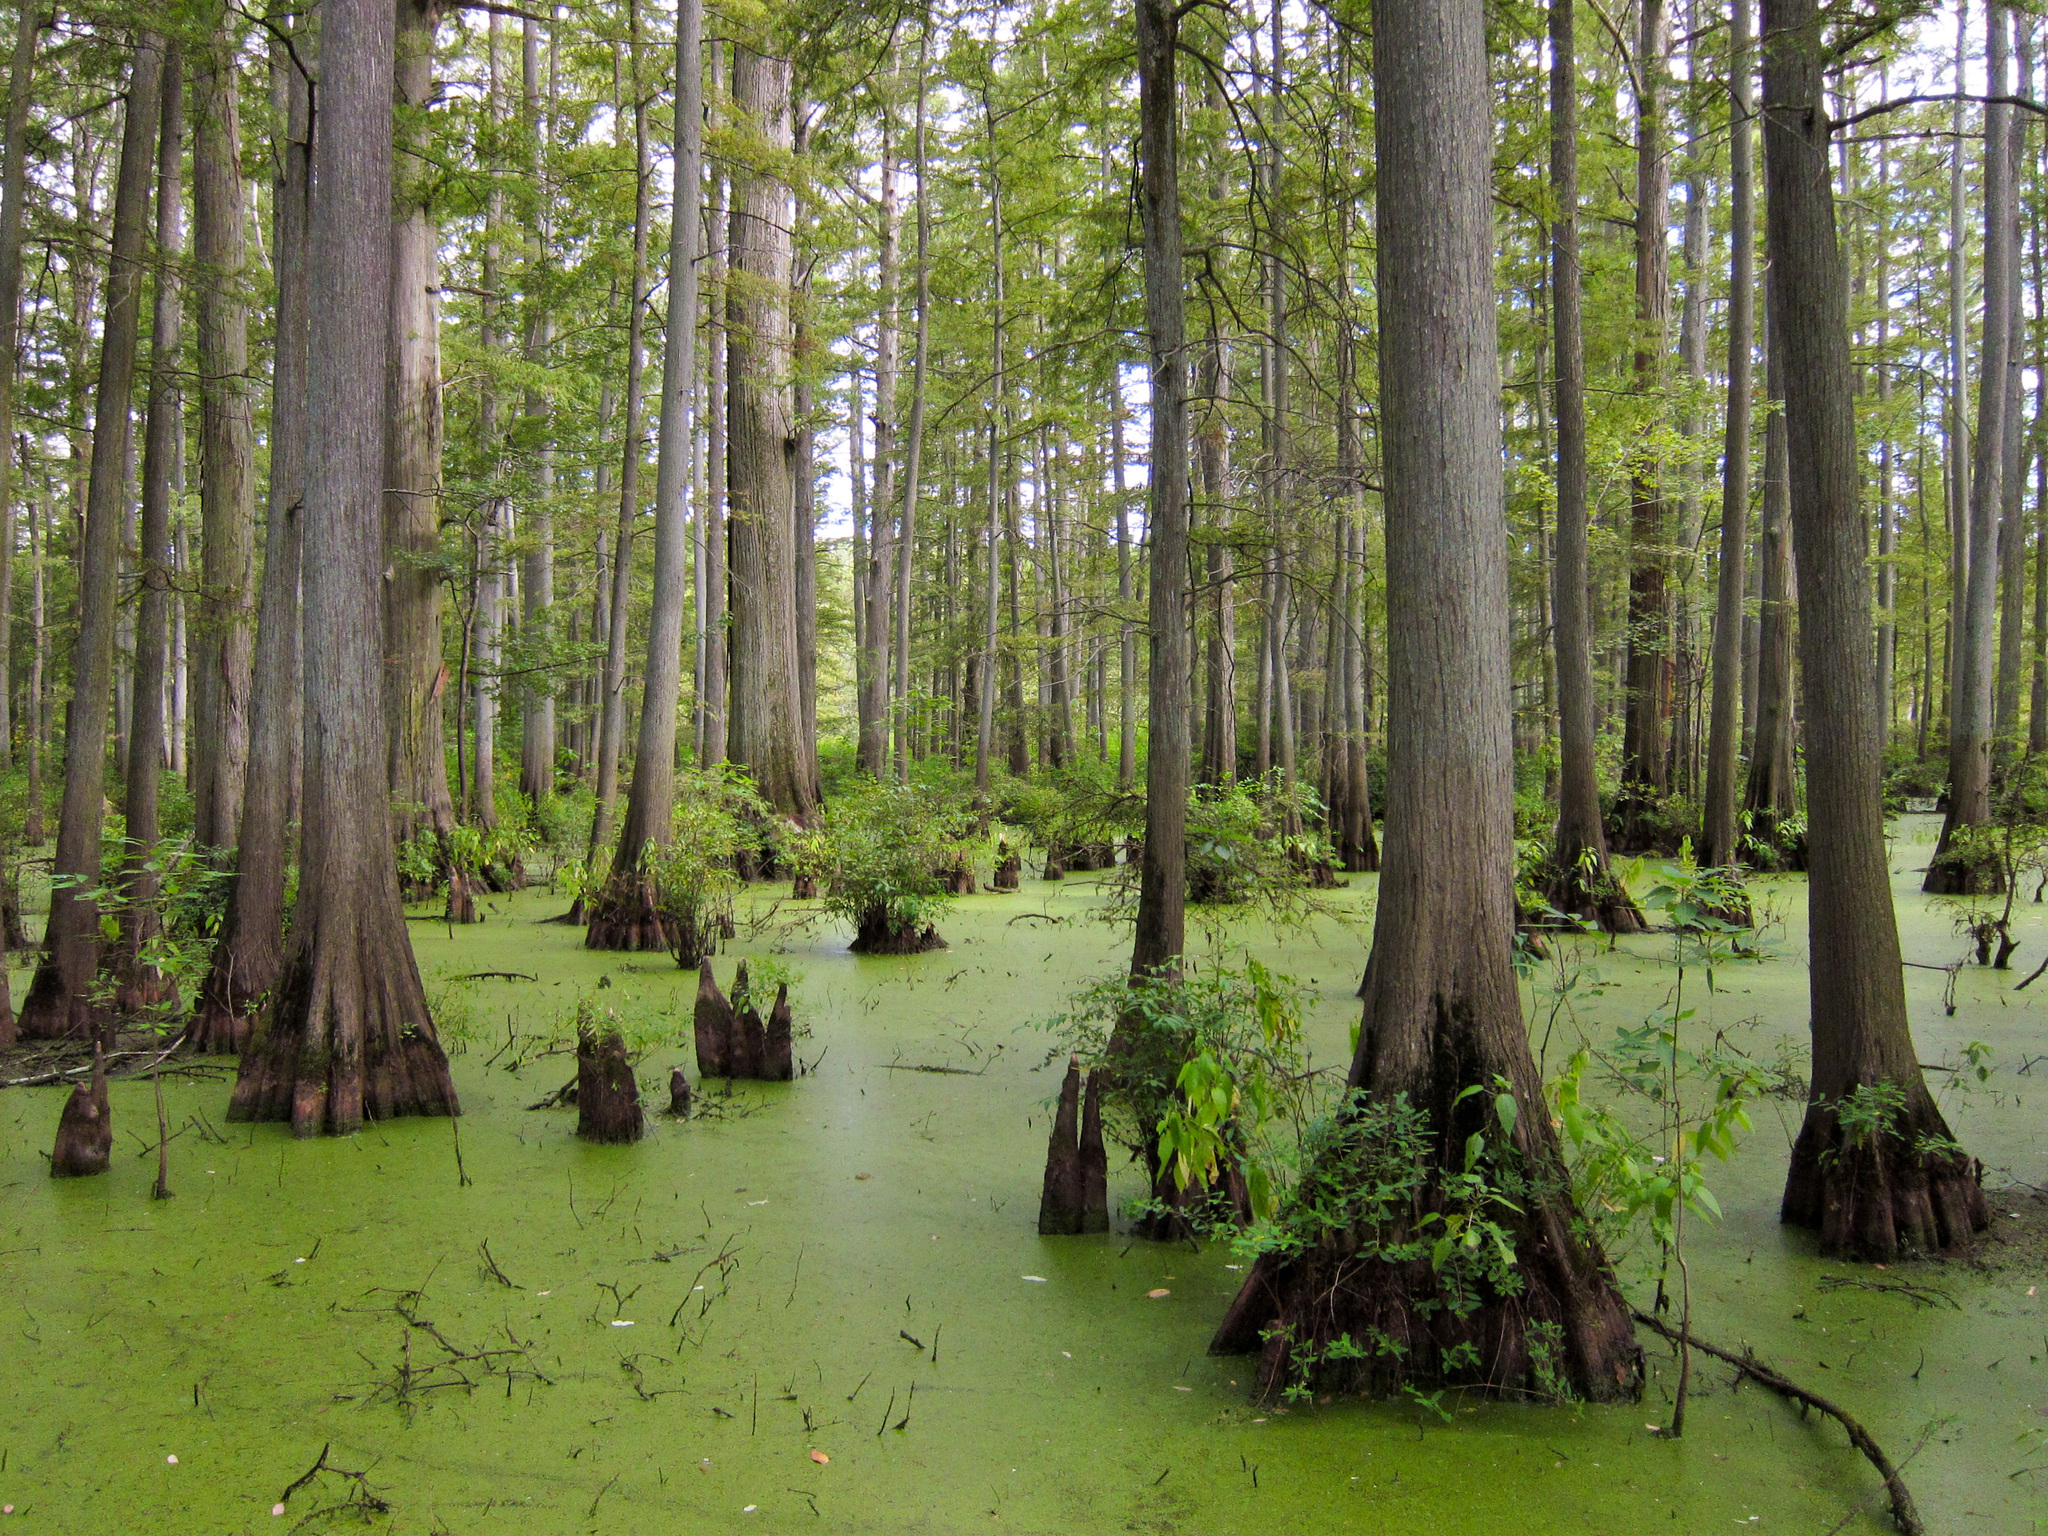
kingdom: Plantae
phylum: Tracheophyta
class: Pinopsida
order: Pinales
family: Cupressaceae
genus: Taxodium
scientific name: Taxodium distichum
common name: Bald cypress
